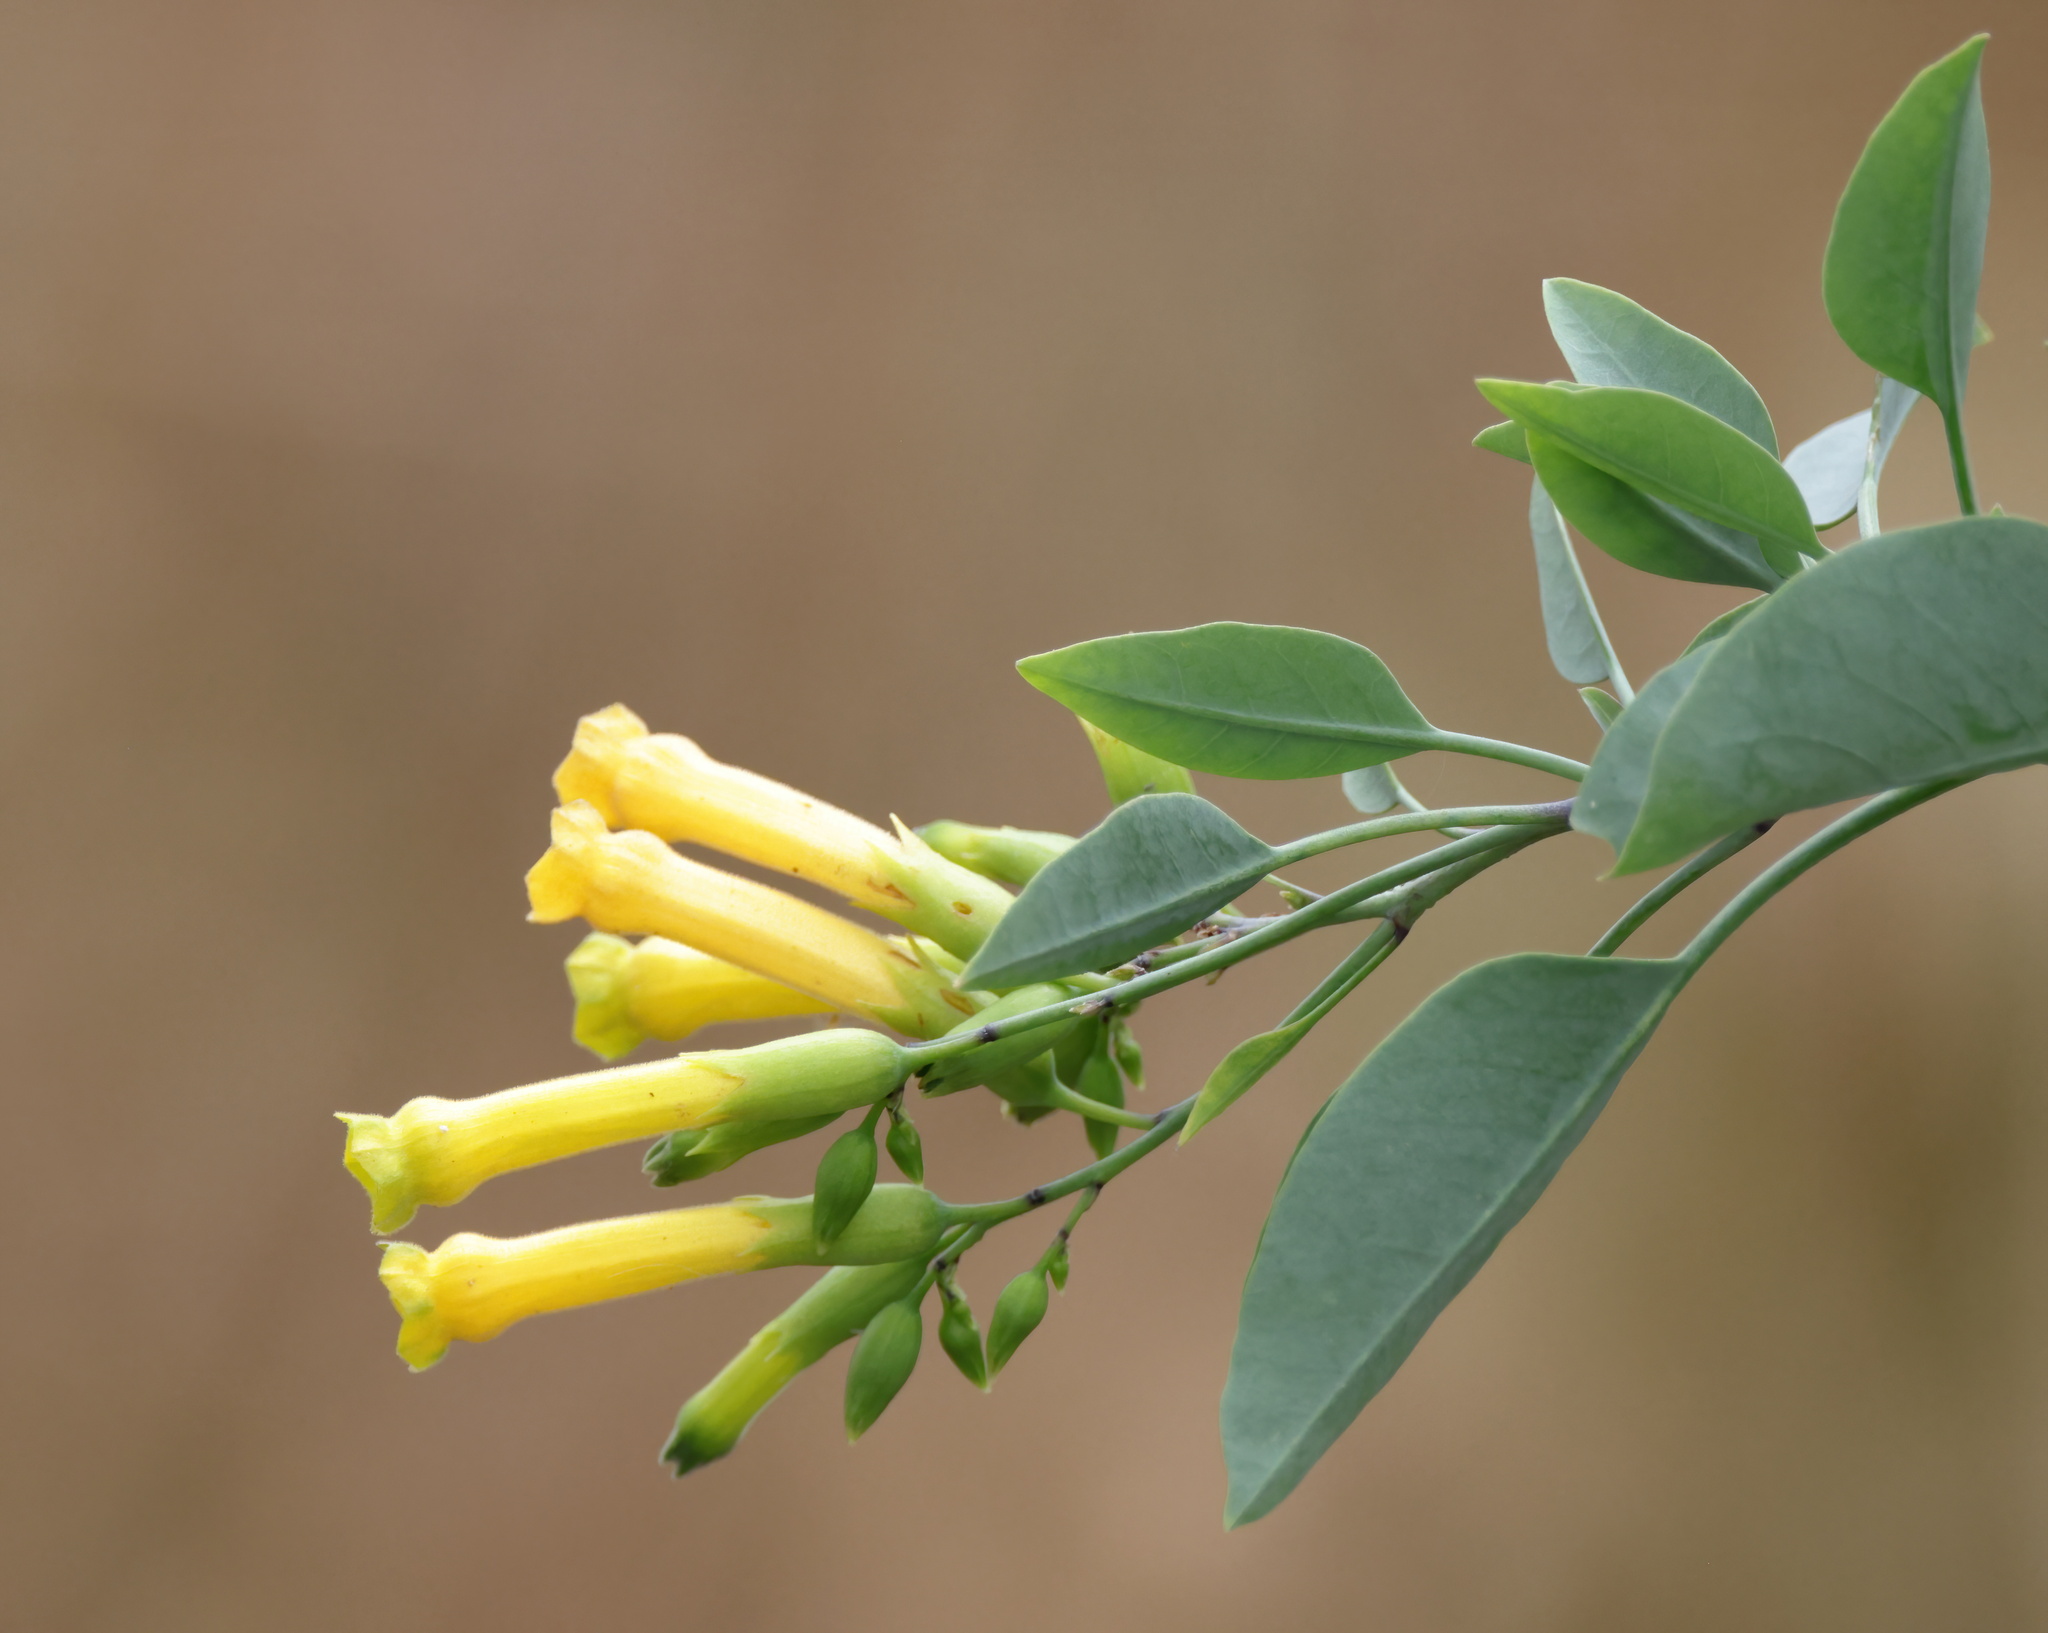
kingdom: Plantae
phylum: Tracheophyta
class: Magnoliopsida
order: Solanales
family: Solanaceae
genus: Nicotiana
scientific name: Nicotiana glauca
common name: Tree tobacco
